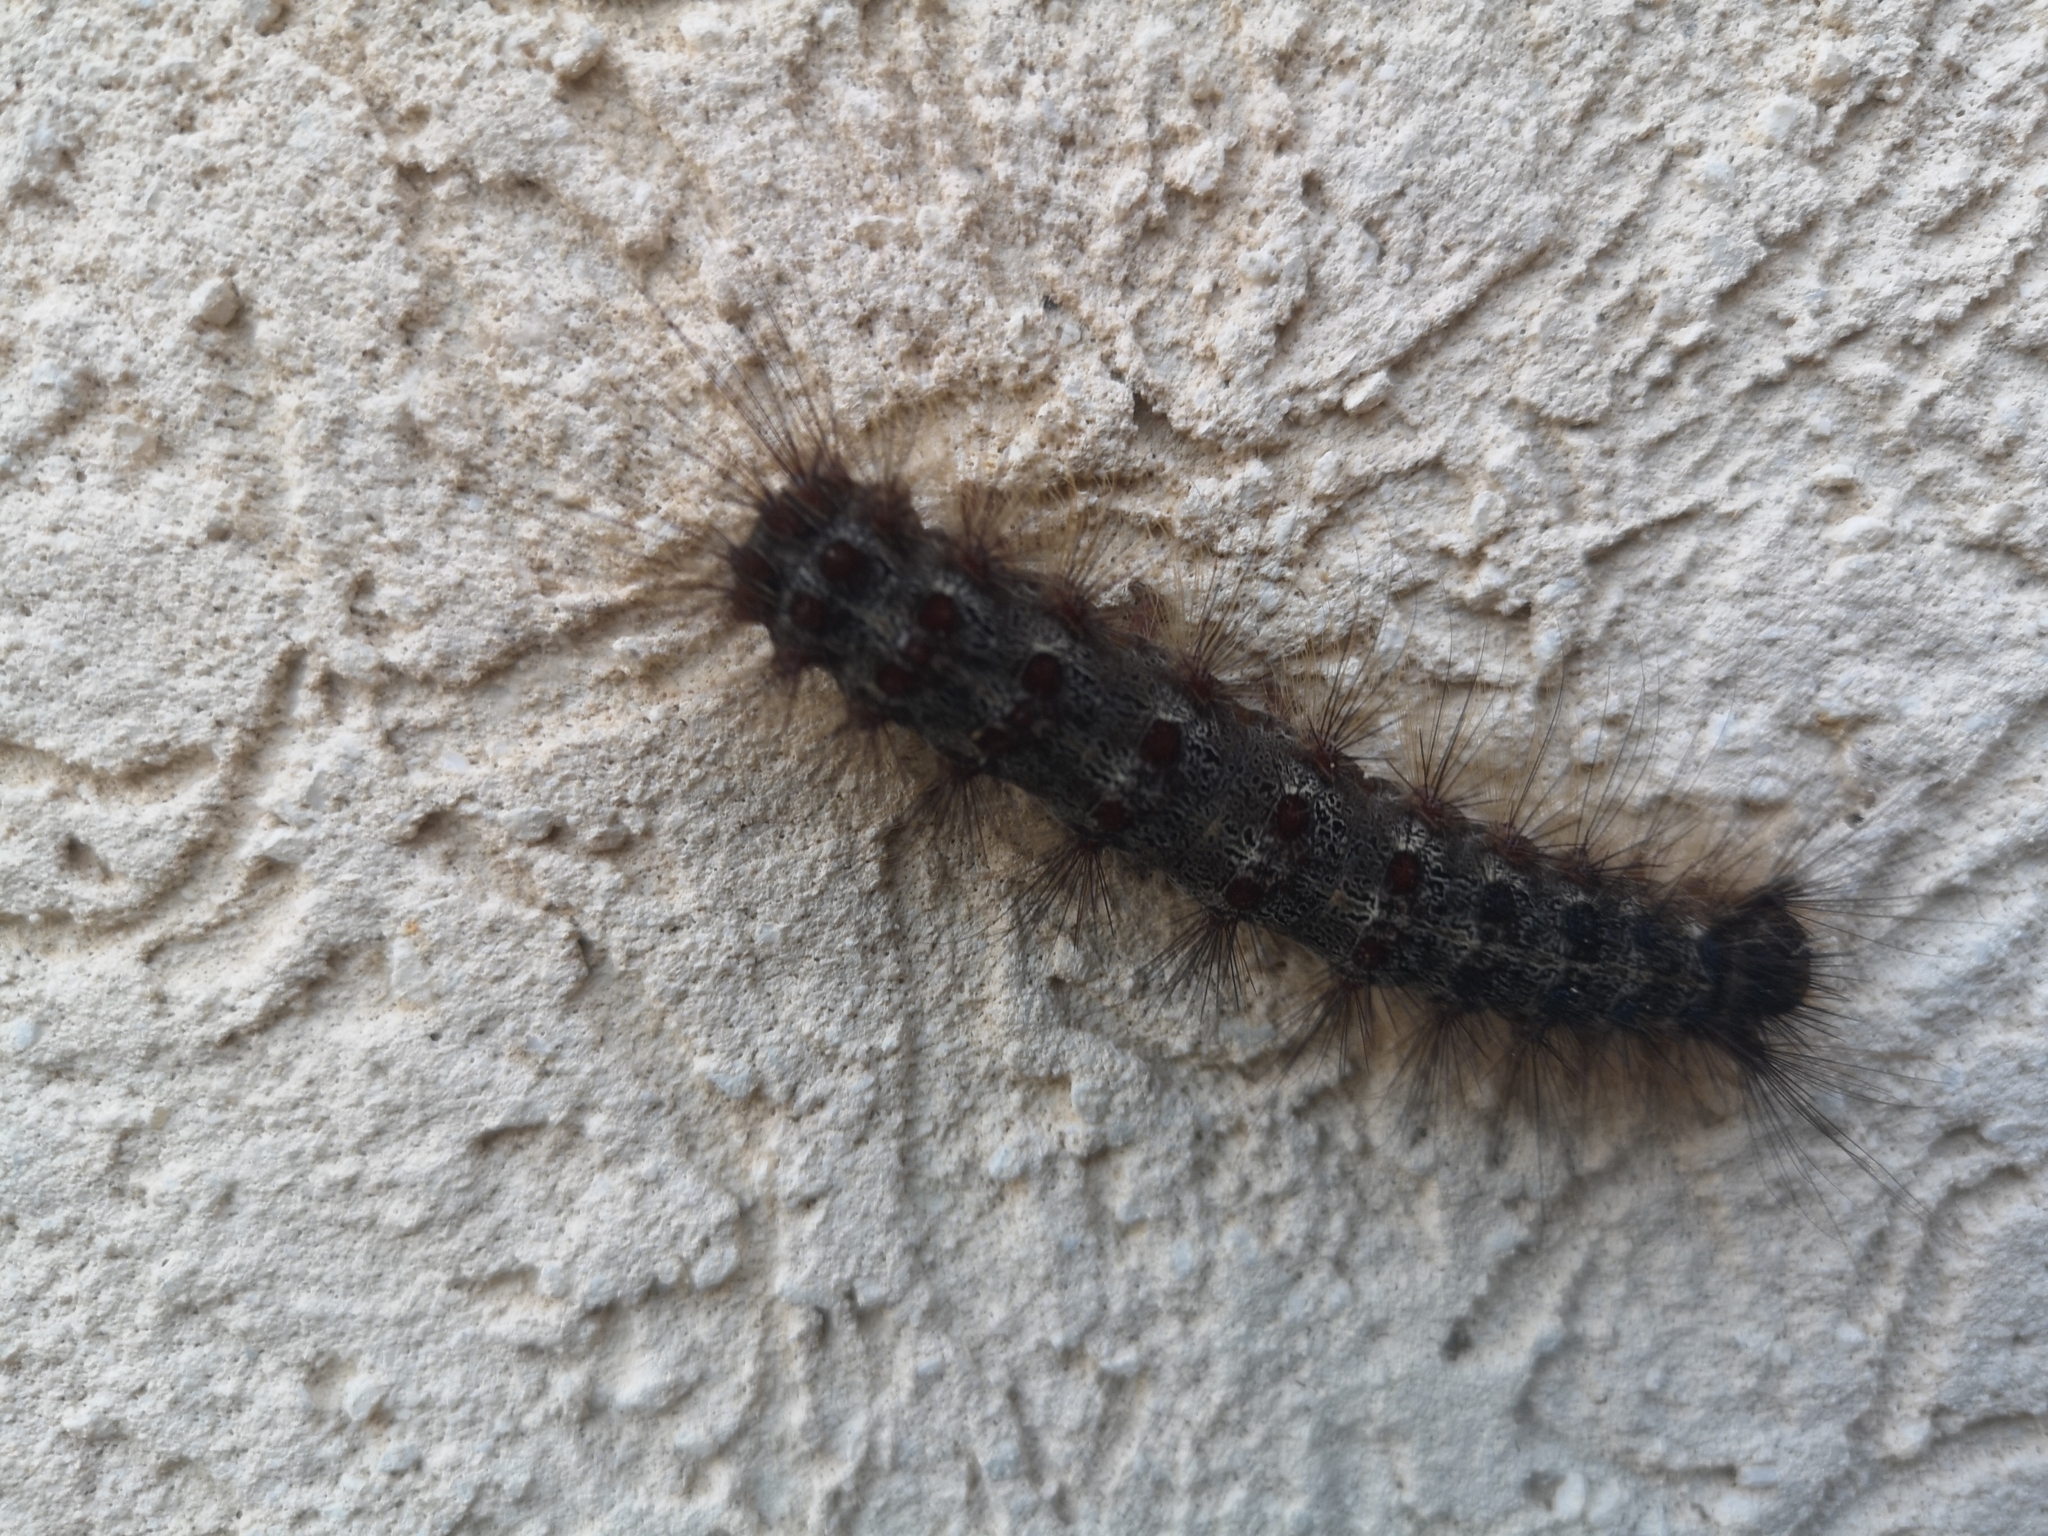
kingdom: Animalia
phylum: Arthropoda
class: Insecta
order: Lepidoptera
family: Erebidae
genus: Lymantria
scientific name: Lymantria dispar
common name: Gypsy moth
